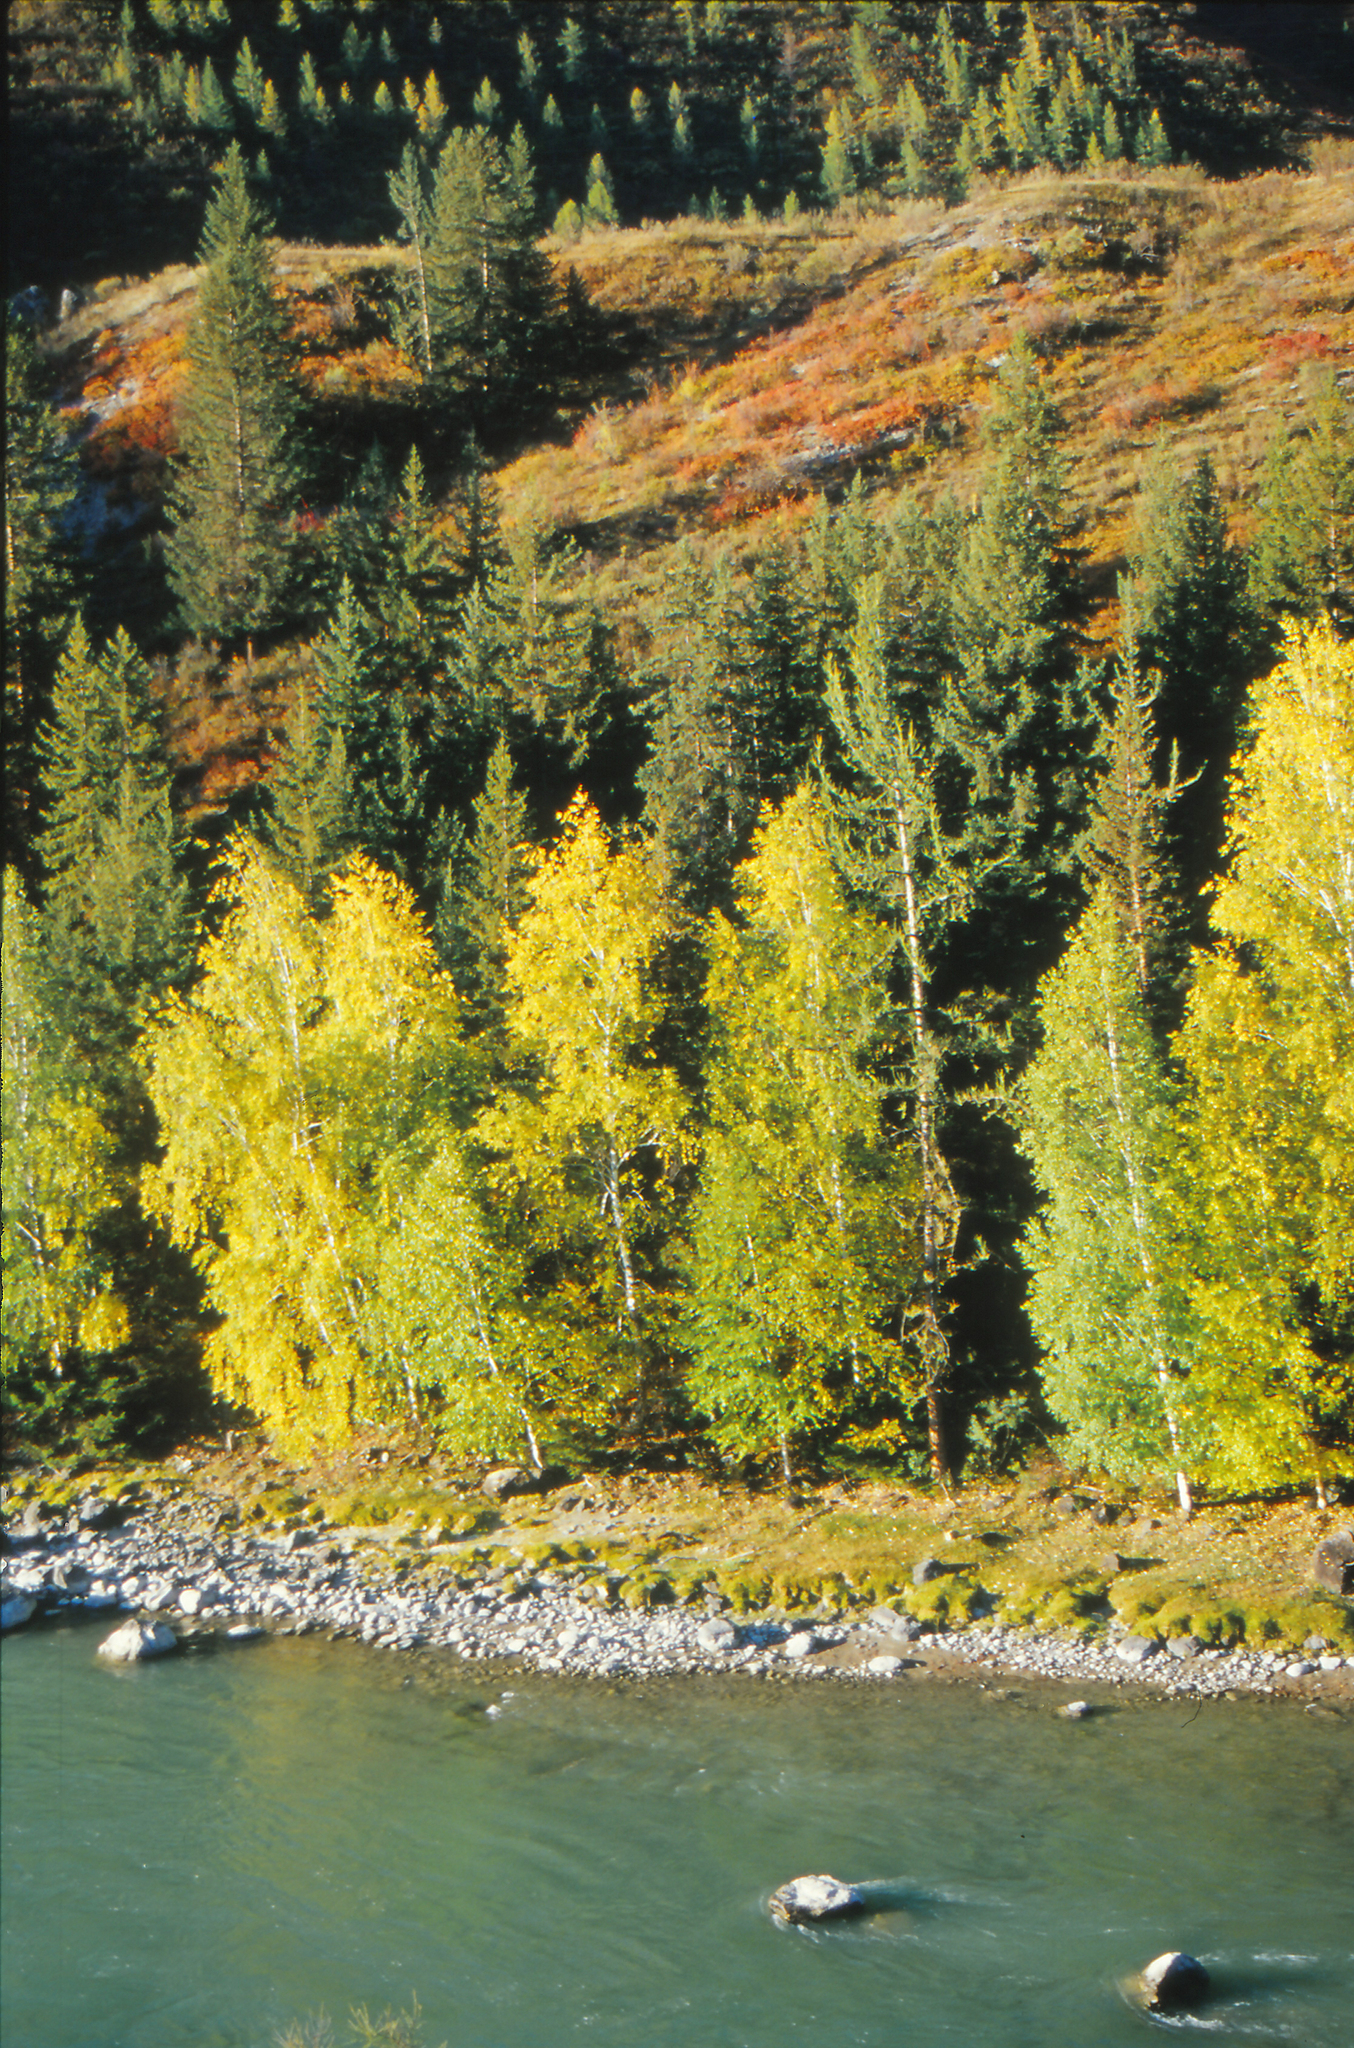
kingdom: Plantae
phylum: Tracheophyta
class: Pinopsida
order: Pinales
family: Pinaceae
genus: Picea
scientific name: Picea obovata
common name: Siberian spruce
